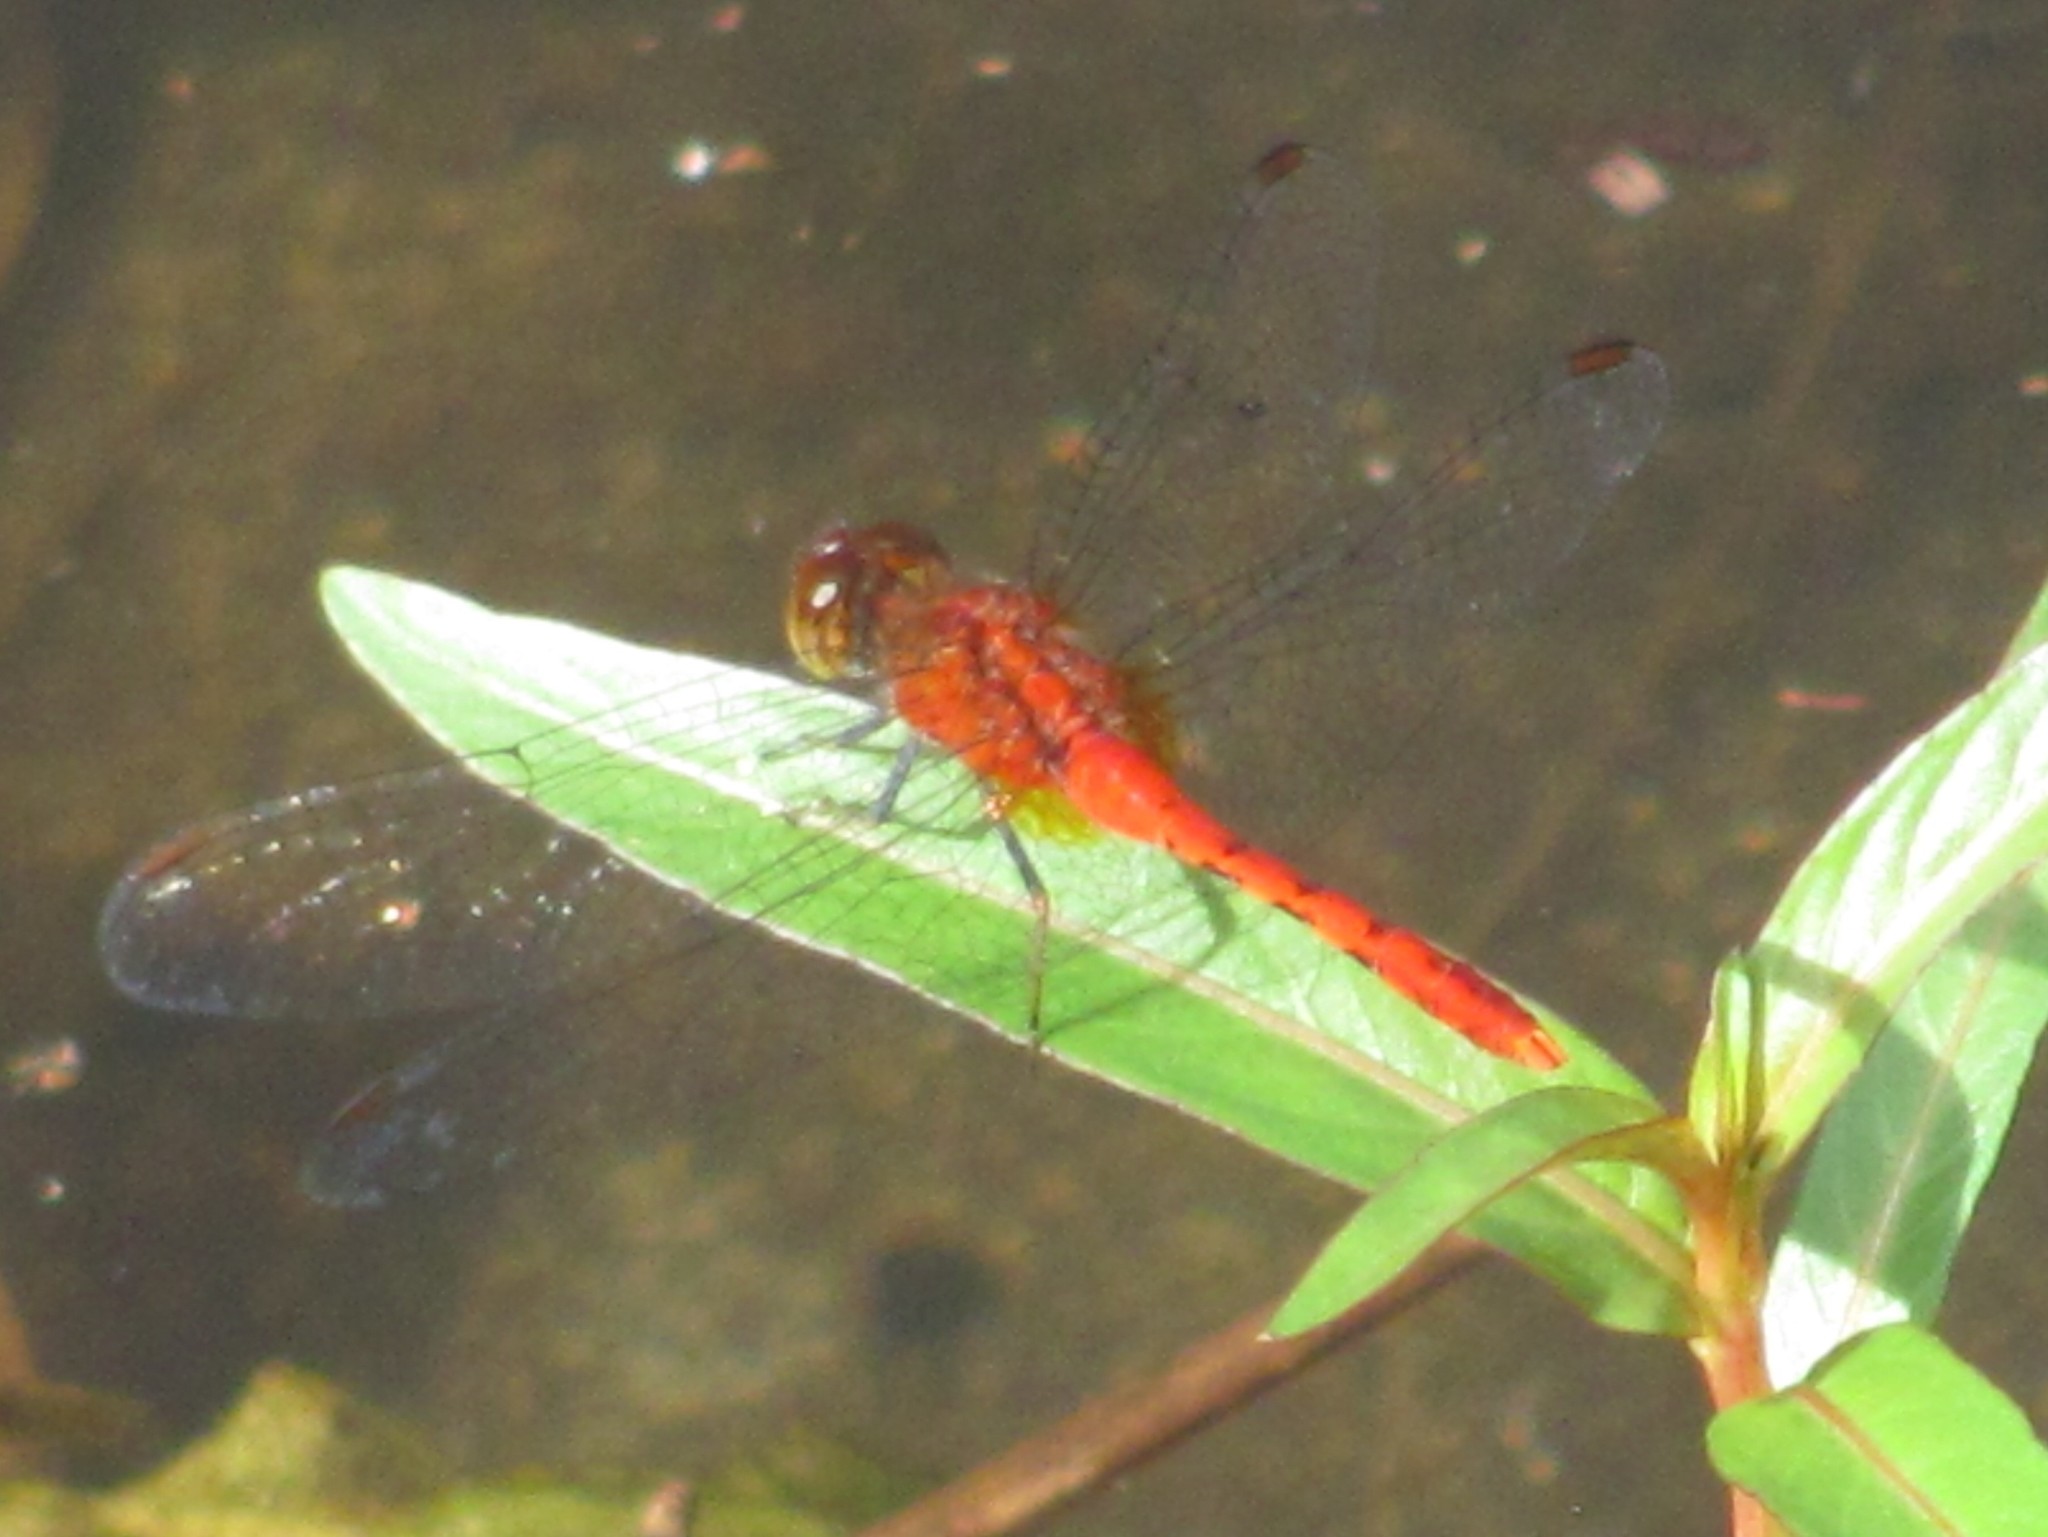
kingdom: Animalia
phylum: Arthropoda
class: Insecta
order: Odonata
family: Libellulidae
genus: Diplacodes
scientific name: Diplacodes bipunctata
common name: Red percher dragonfly
